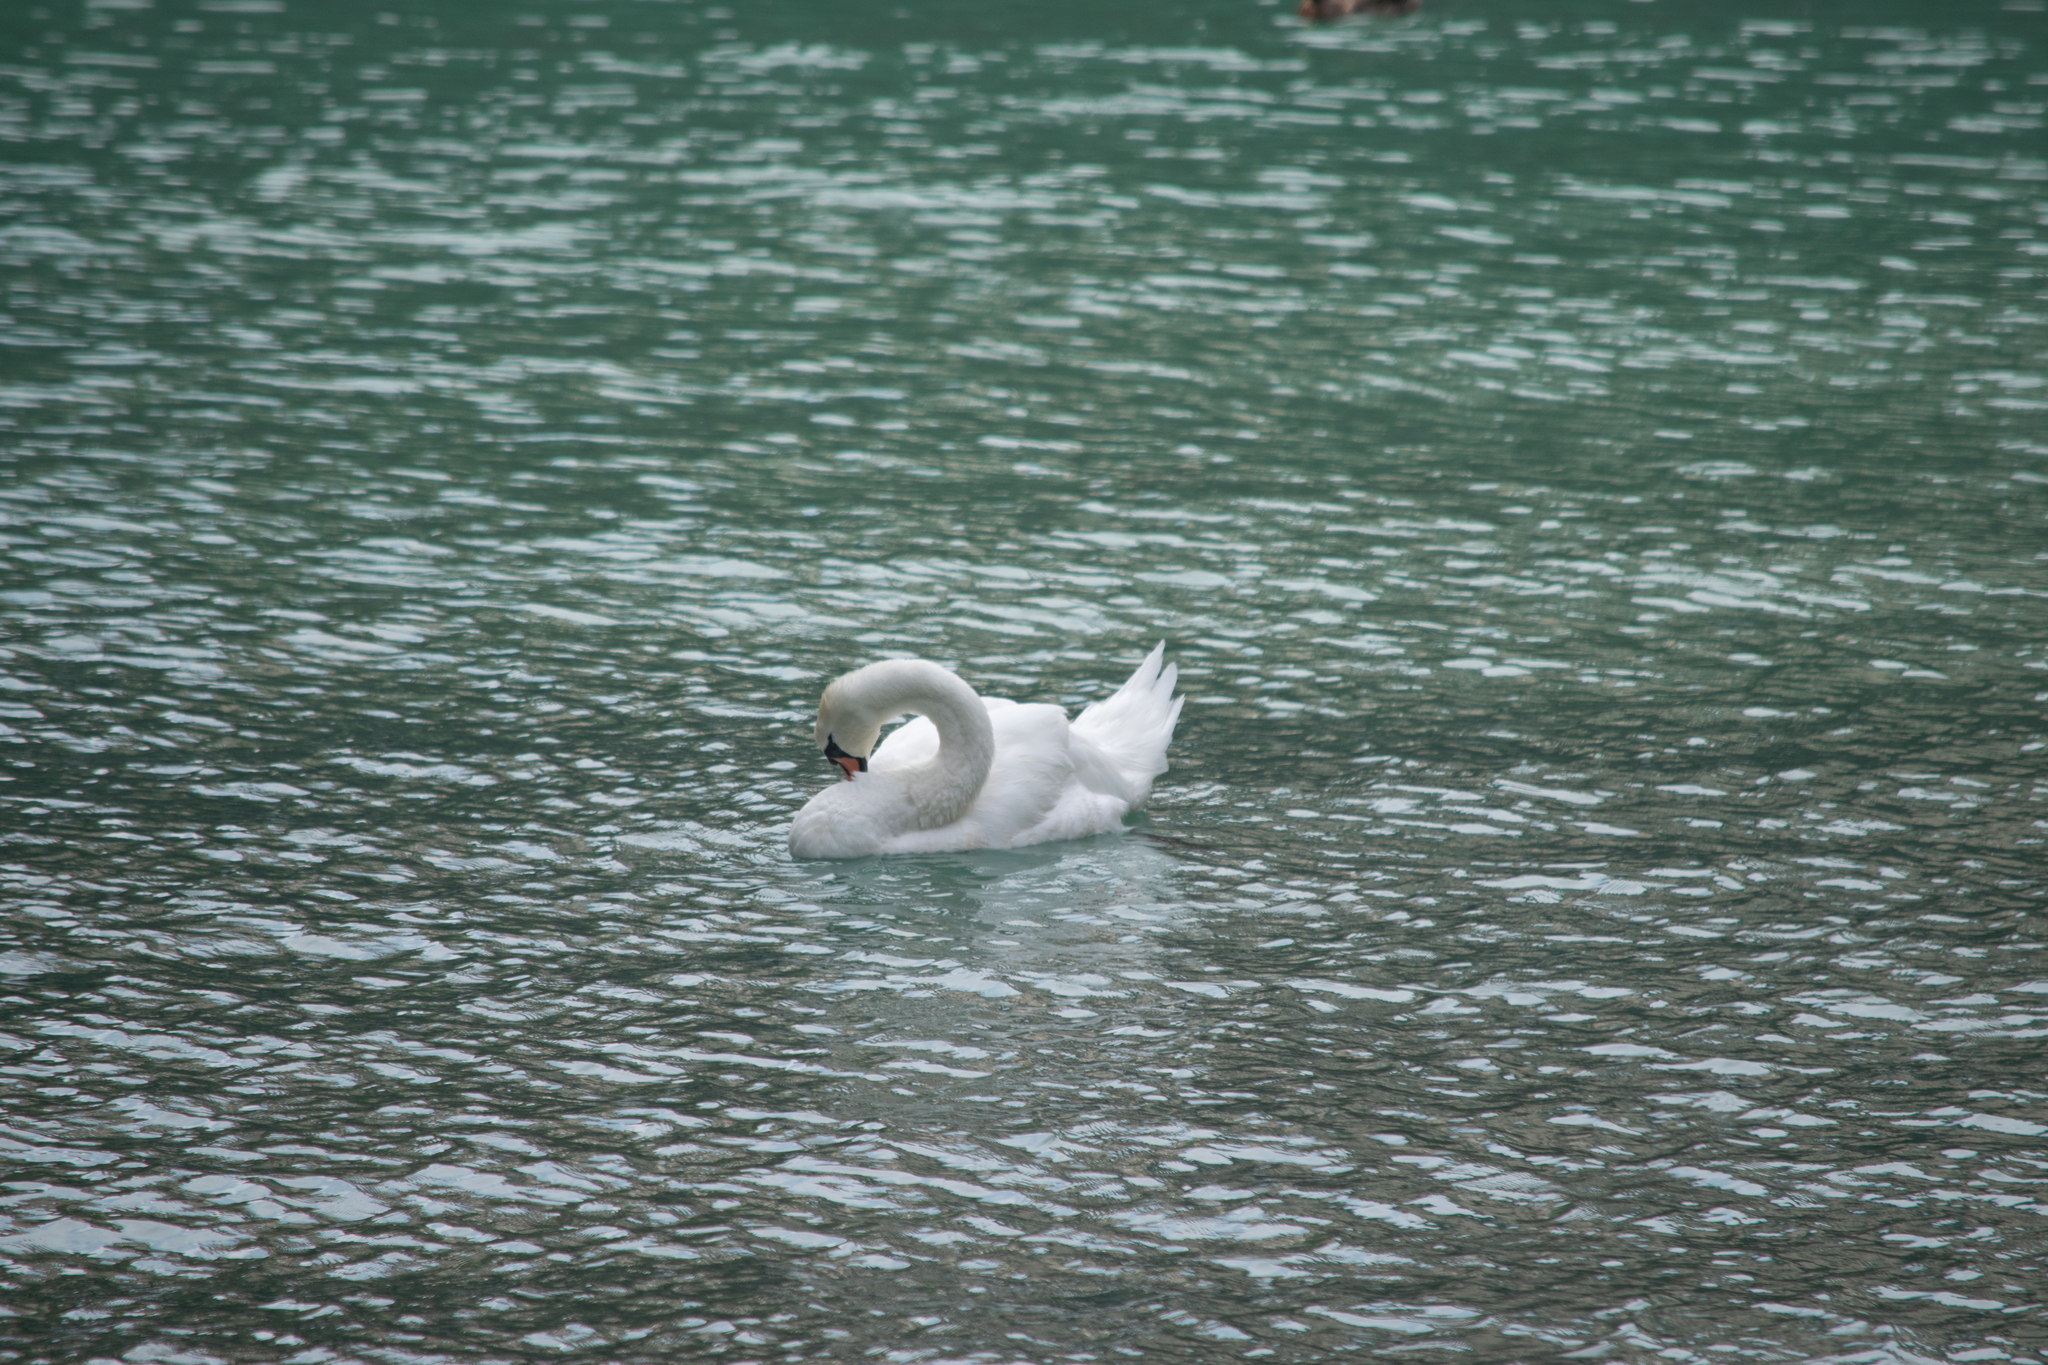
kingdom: Animalia
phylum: Chordata
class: Aves
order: Anseriformes
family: Anatidae
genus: Cygnus
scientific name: Cygnus olor
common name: Mute swan
